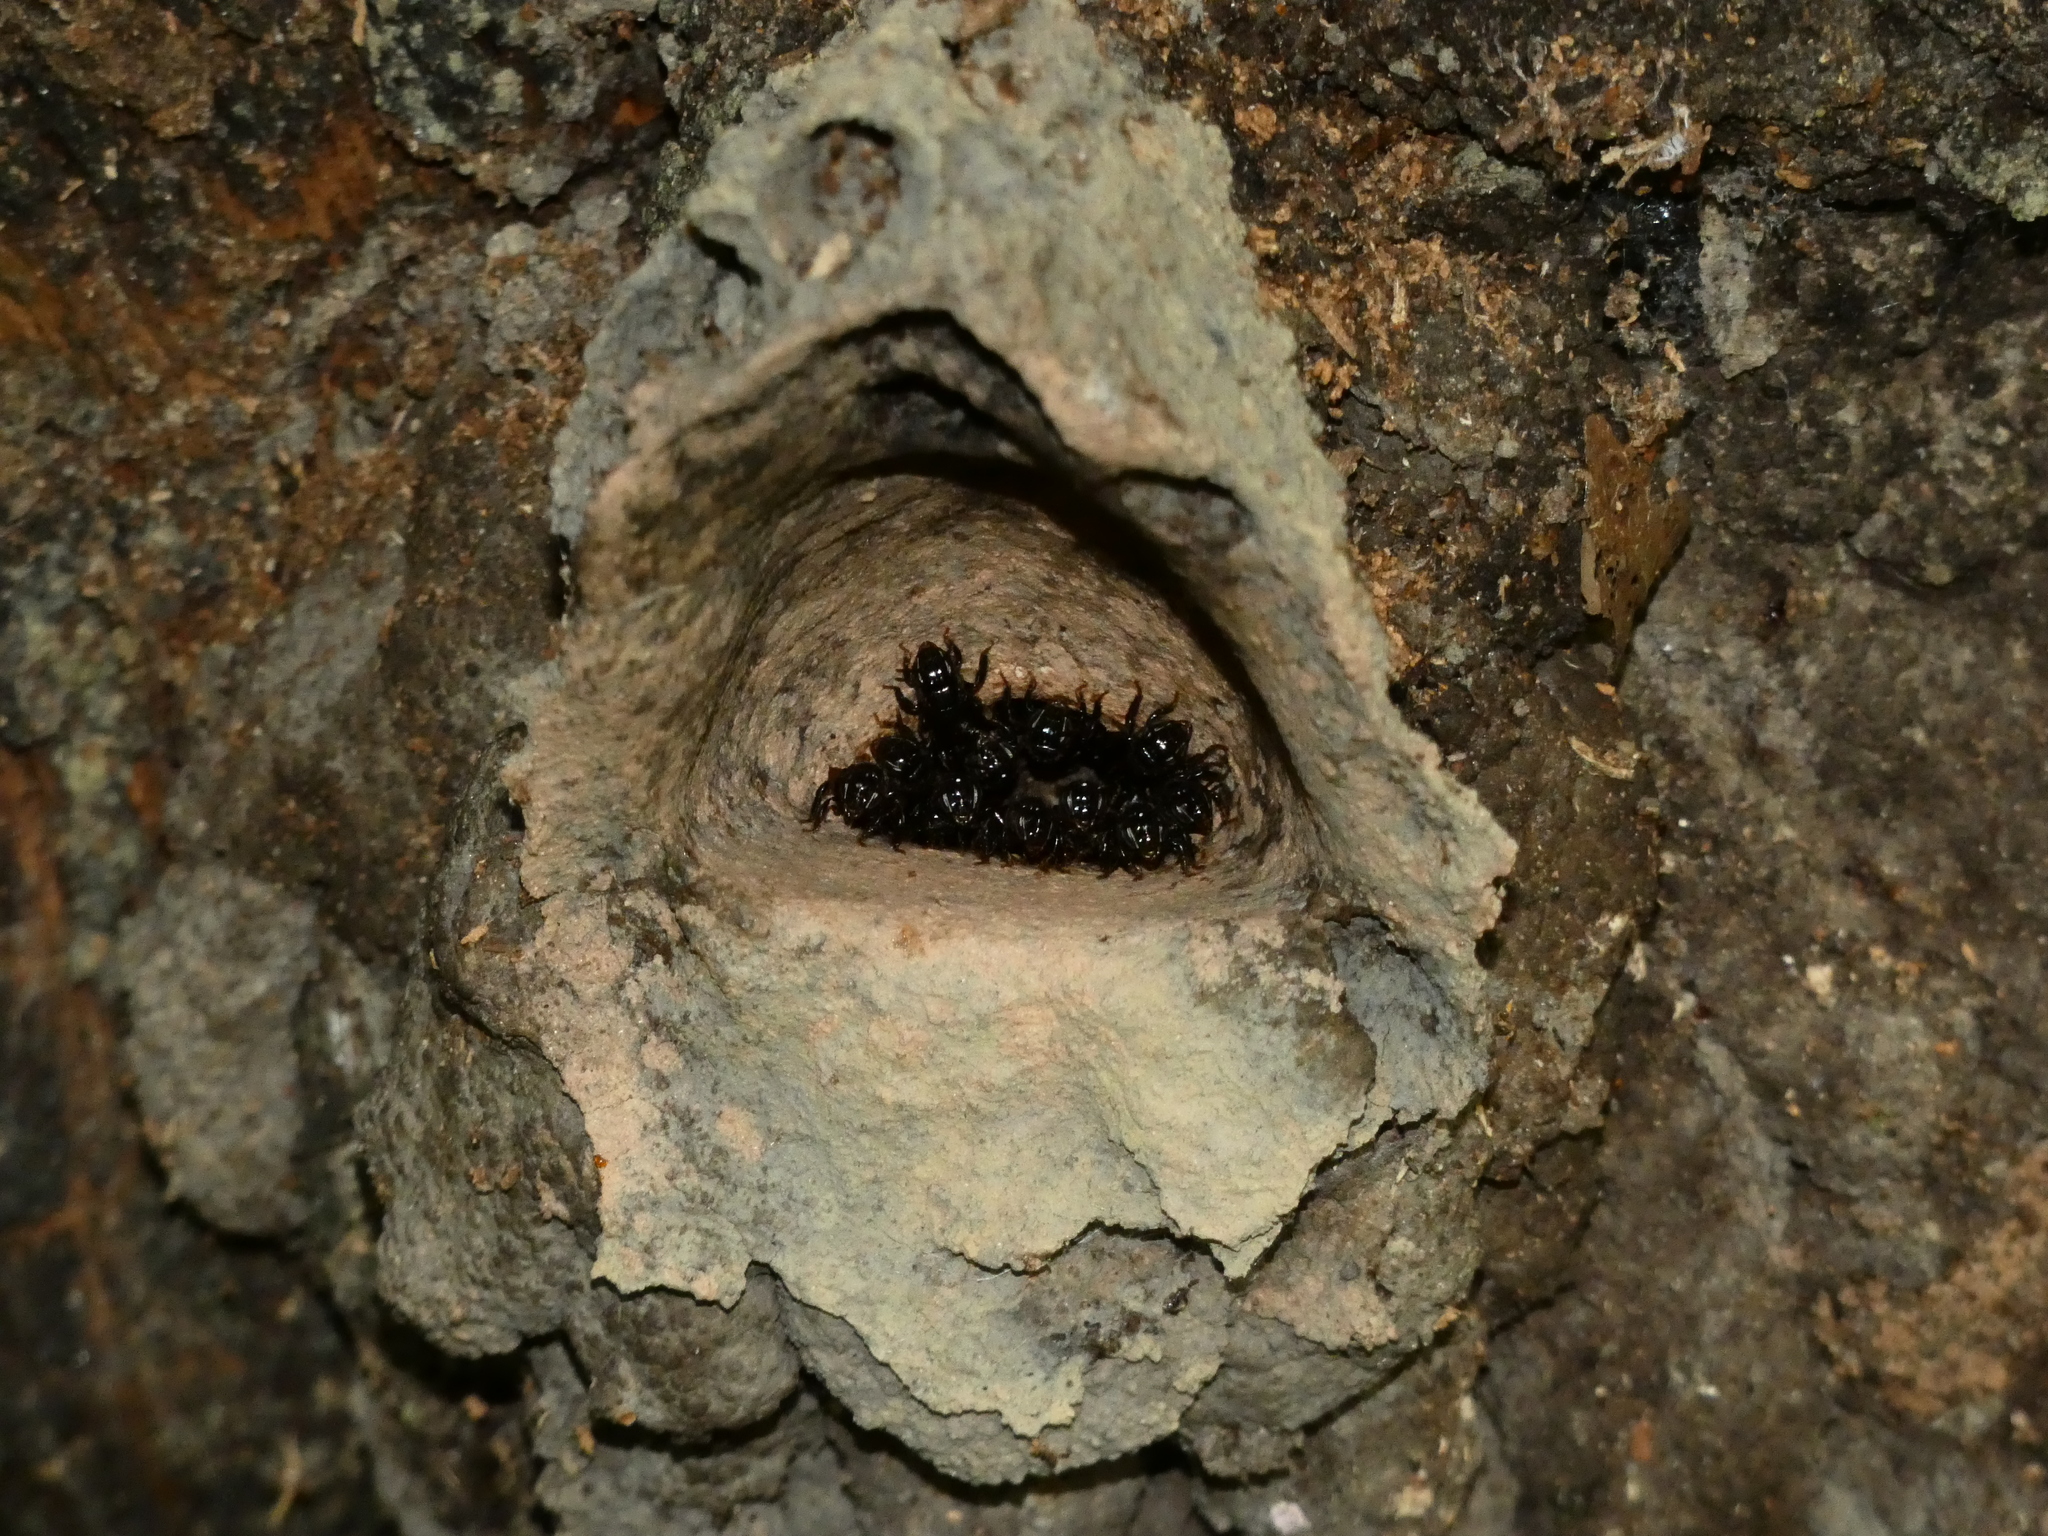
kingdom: Animalia
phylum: Arthropoda
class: Insecta
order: Hymenoptera
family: Apidae
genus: Partamona
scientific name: Partamona helleri
